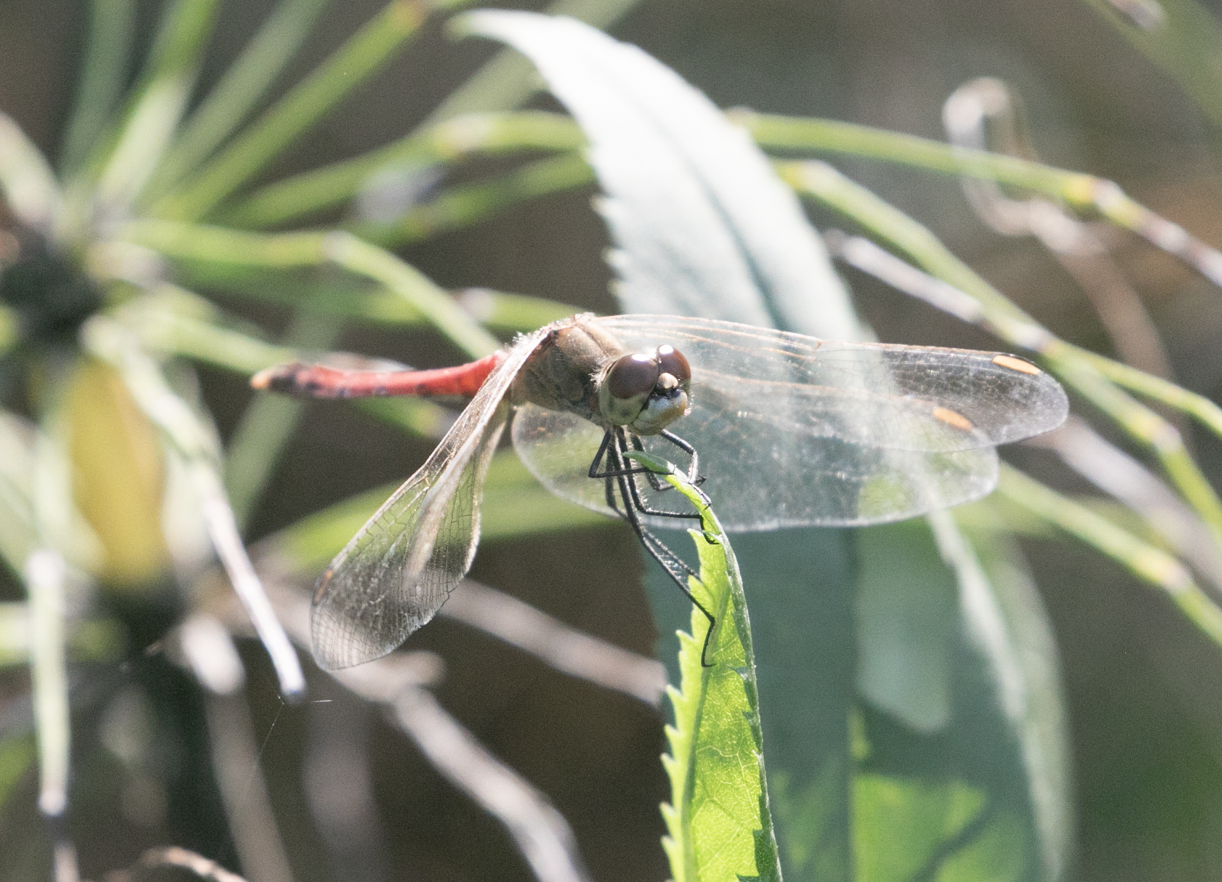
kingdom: Animalia
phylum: Arthropoda
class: Insecta
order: Odonata
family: Libellulidae
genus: Sympetrum
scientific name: Sympetrum depressiusculum
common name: Spotted darter
